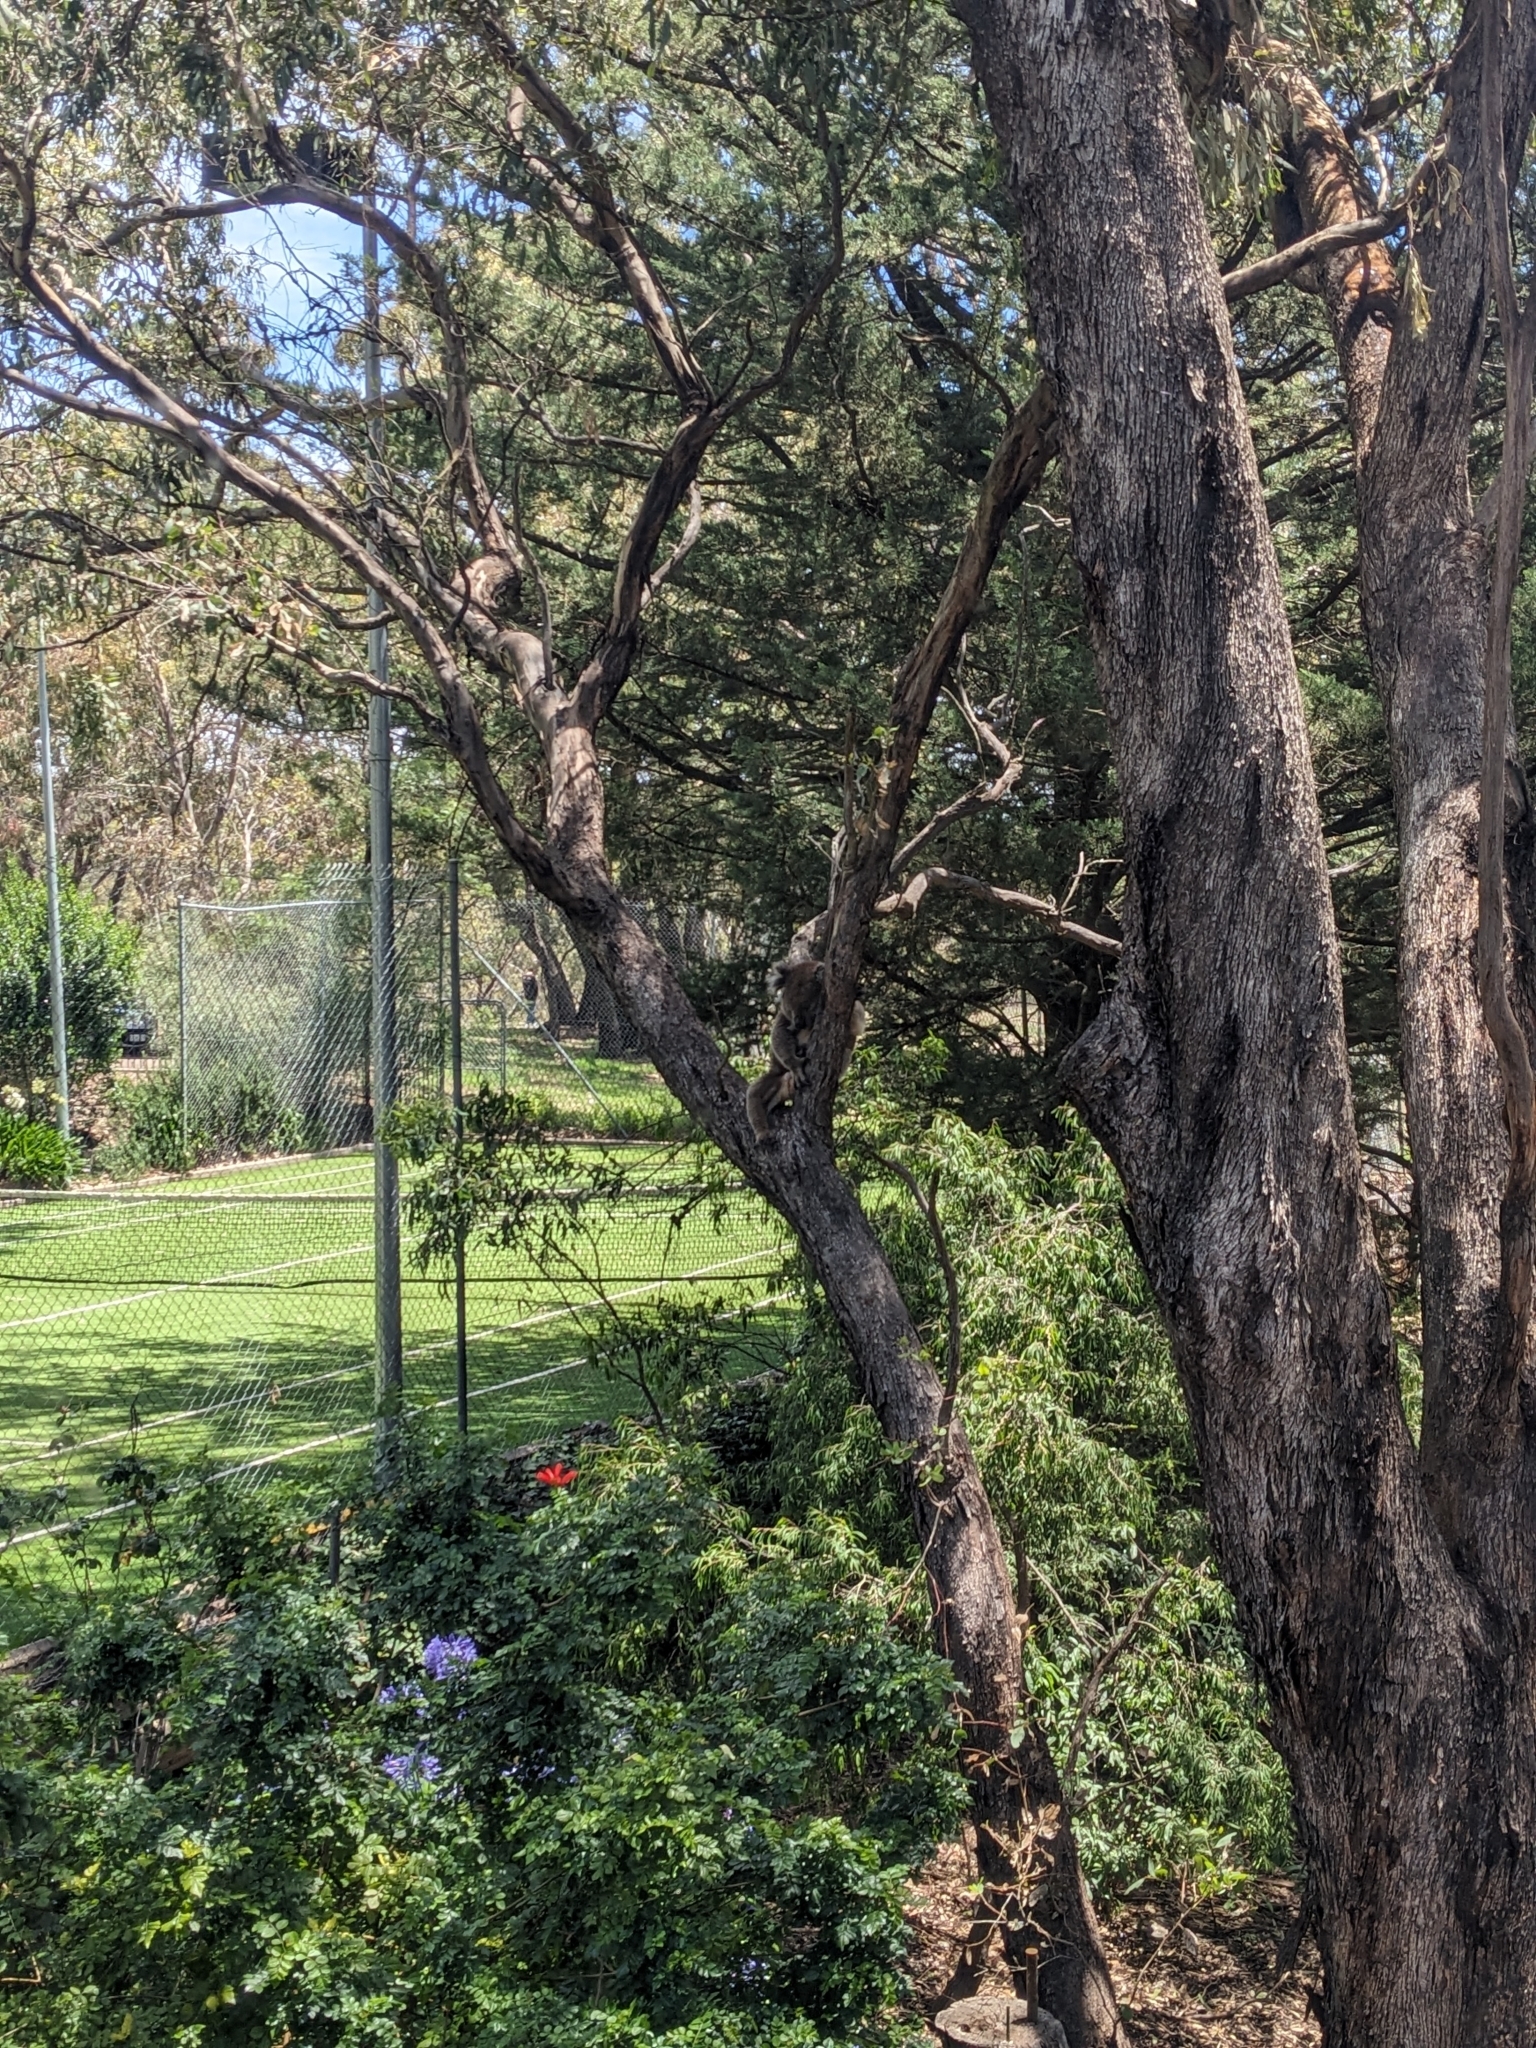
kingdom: Animalia
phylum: Chordata
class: Mammalia
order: Diprotodontia
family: Phascolarctidae
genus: Phascolarctos
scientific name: Phascolarctos cinereus
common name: Koala
